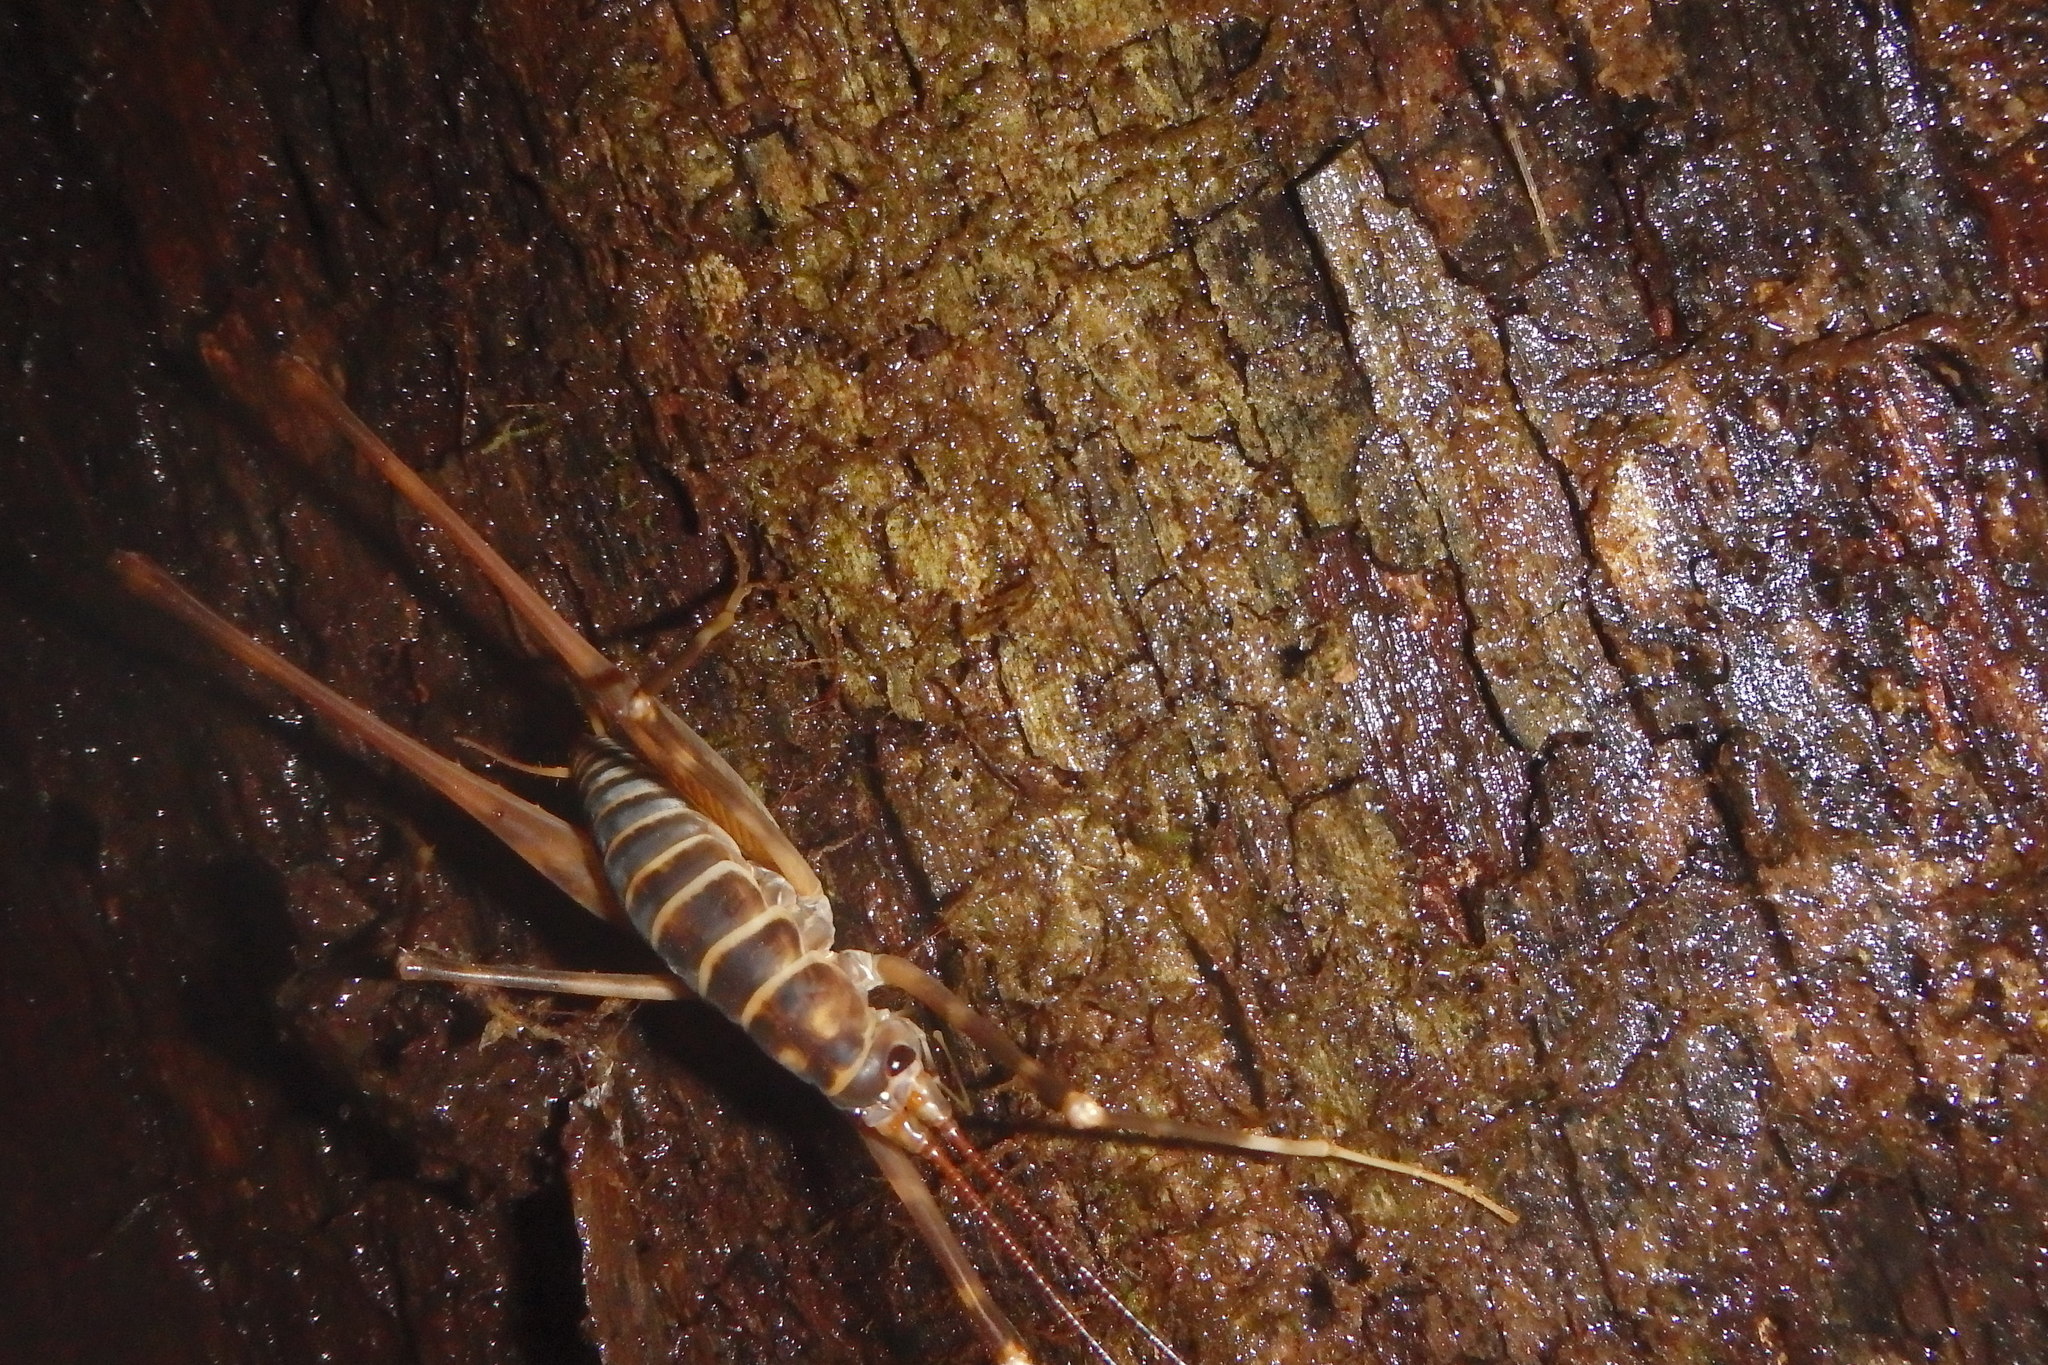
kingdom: Animalia
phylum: Arthropoda
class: Insecta
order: Orthoptera
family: Rhaphidophoridae
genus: Pachyrhamma
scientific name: Pachyrhamma acanthocera
